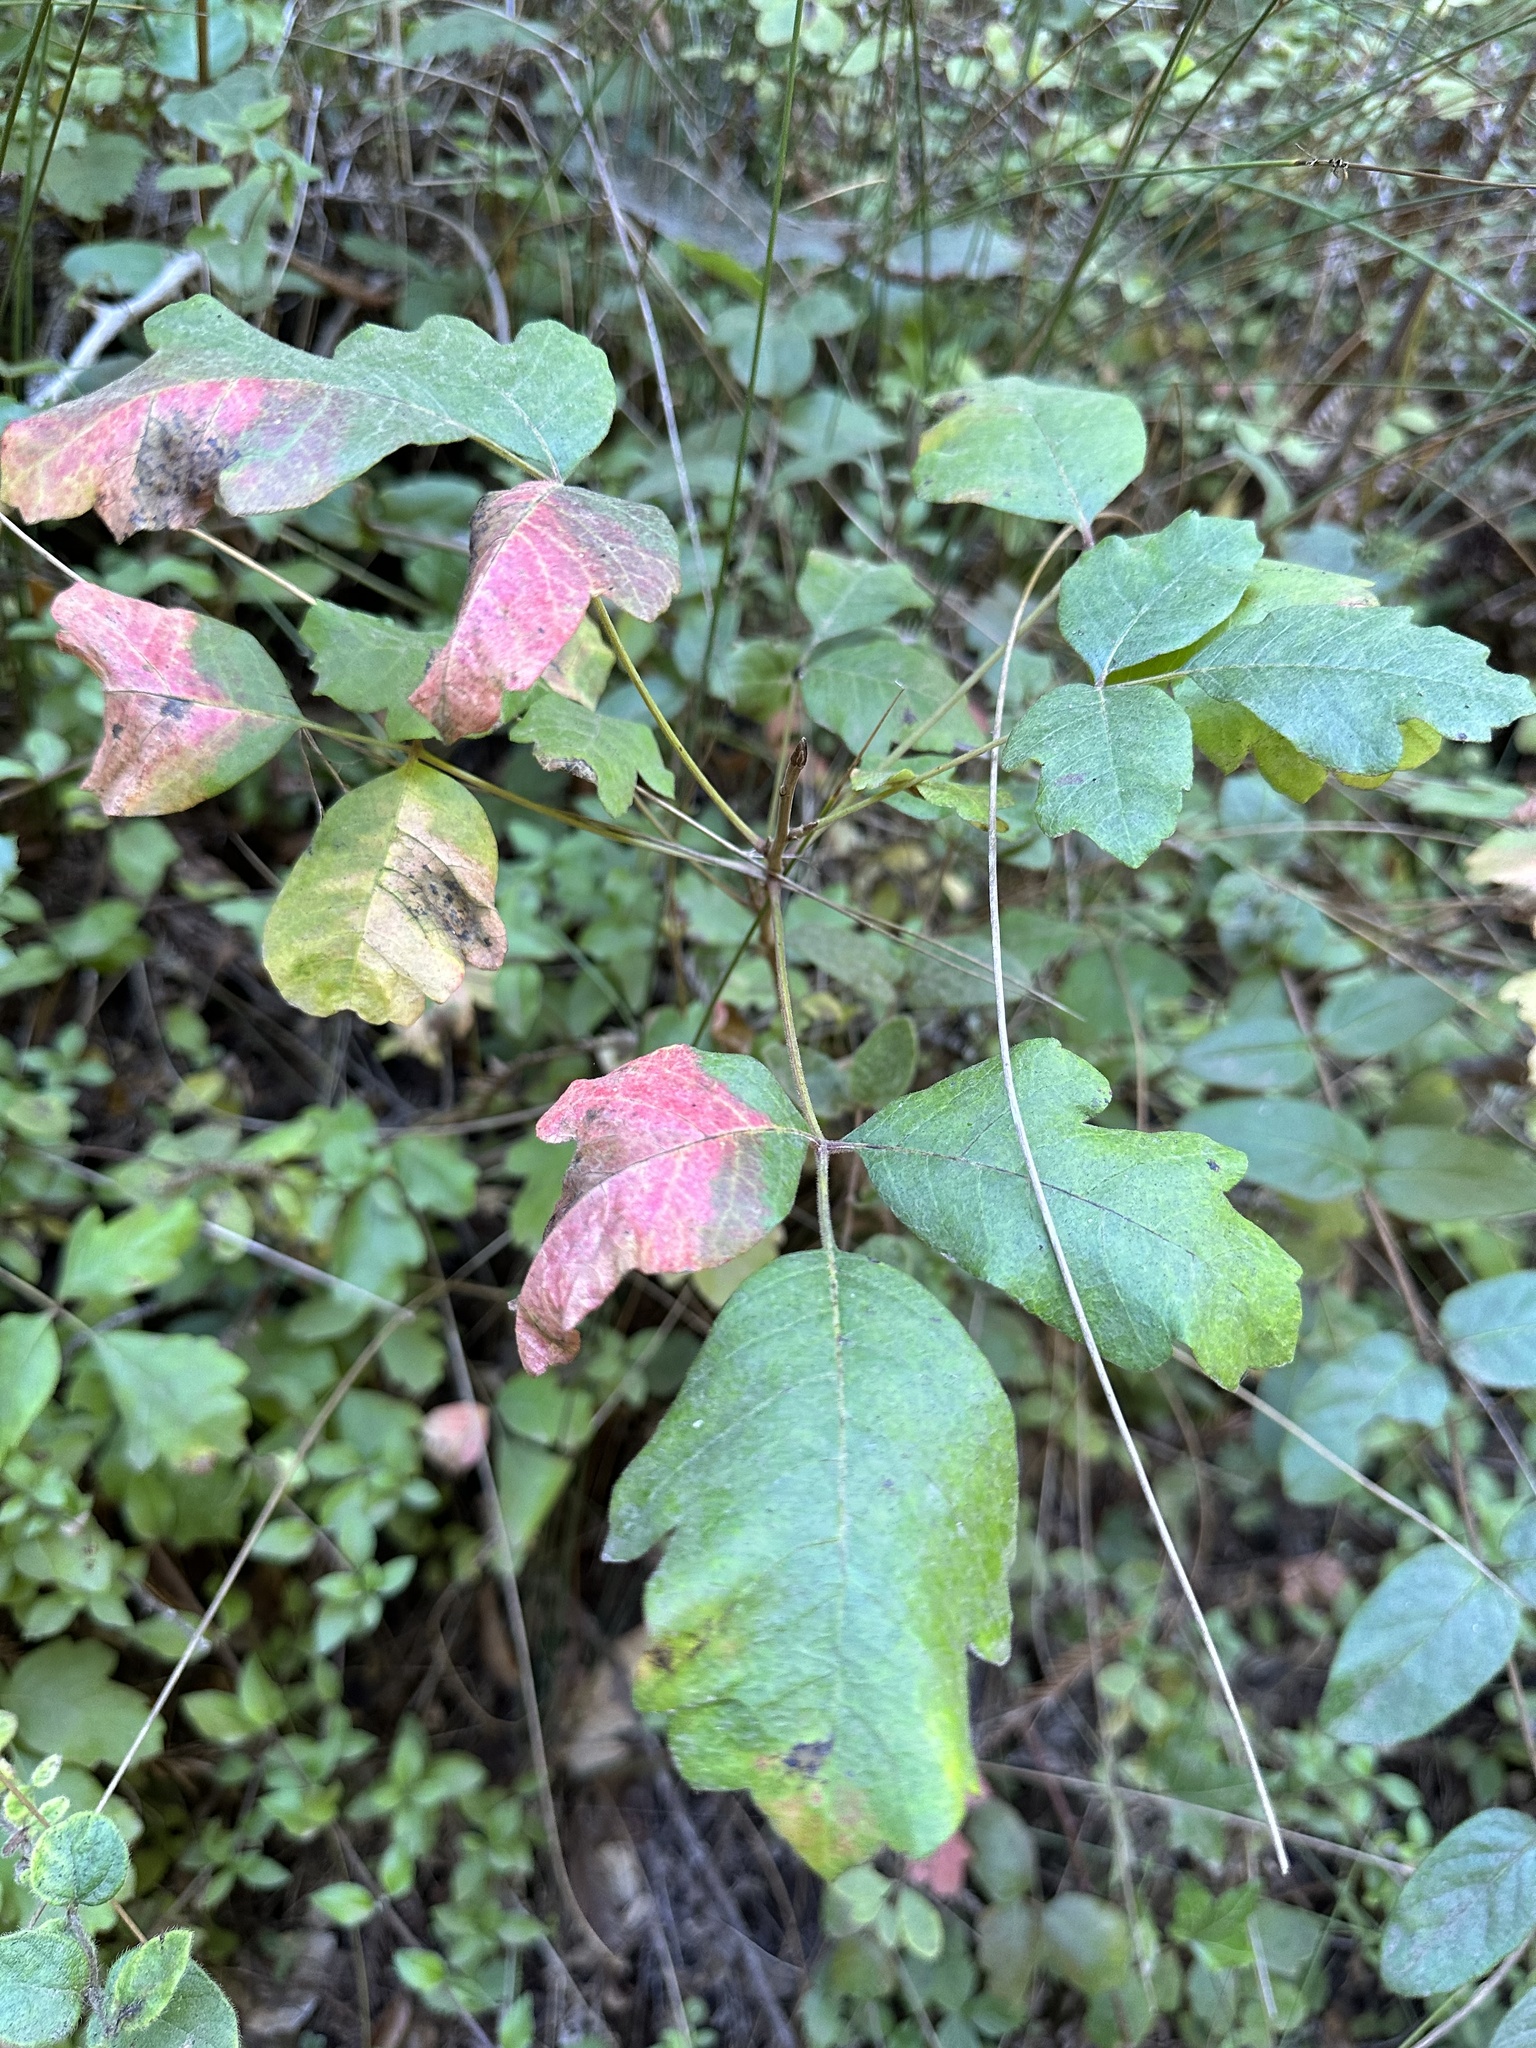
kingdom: Plantae
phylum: Tracheophyta
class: Magnoliopsida
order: Sapindales
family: Anacardiaceae
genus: Toxicodendron
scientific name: Toxicodendron diversilobum
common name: Pacific poison-oak
